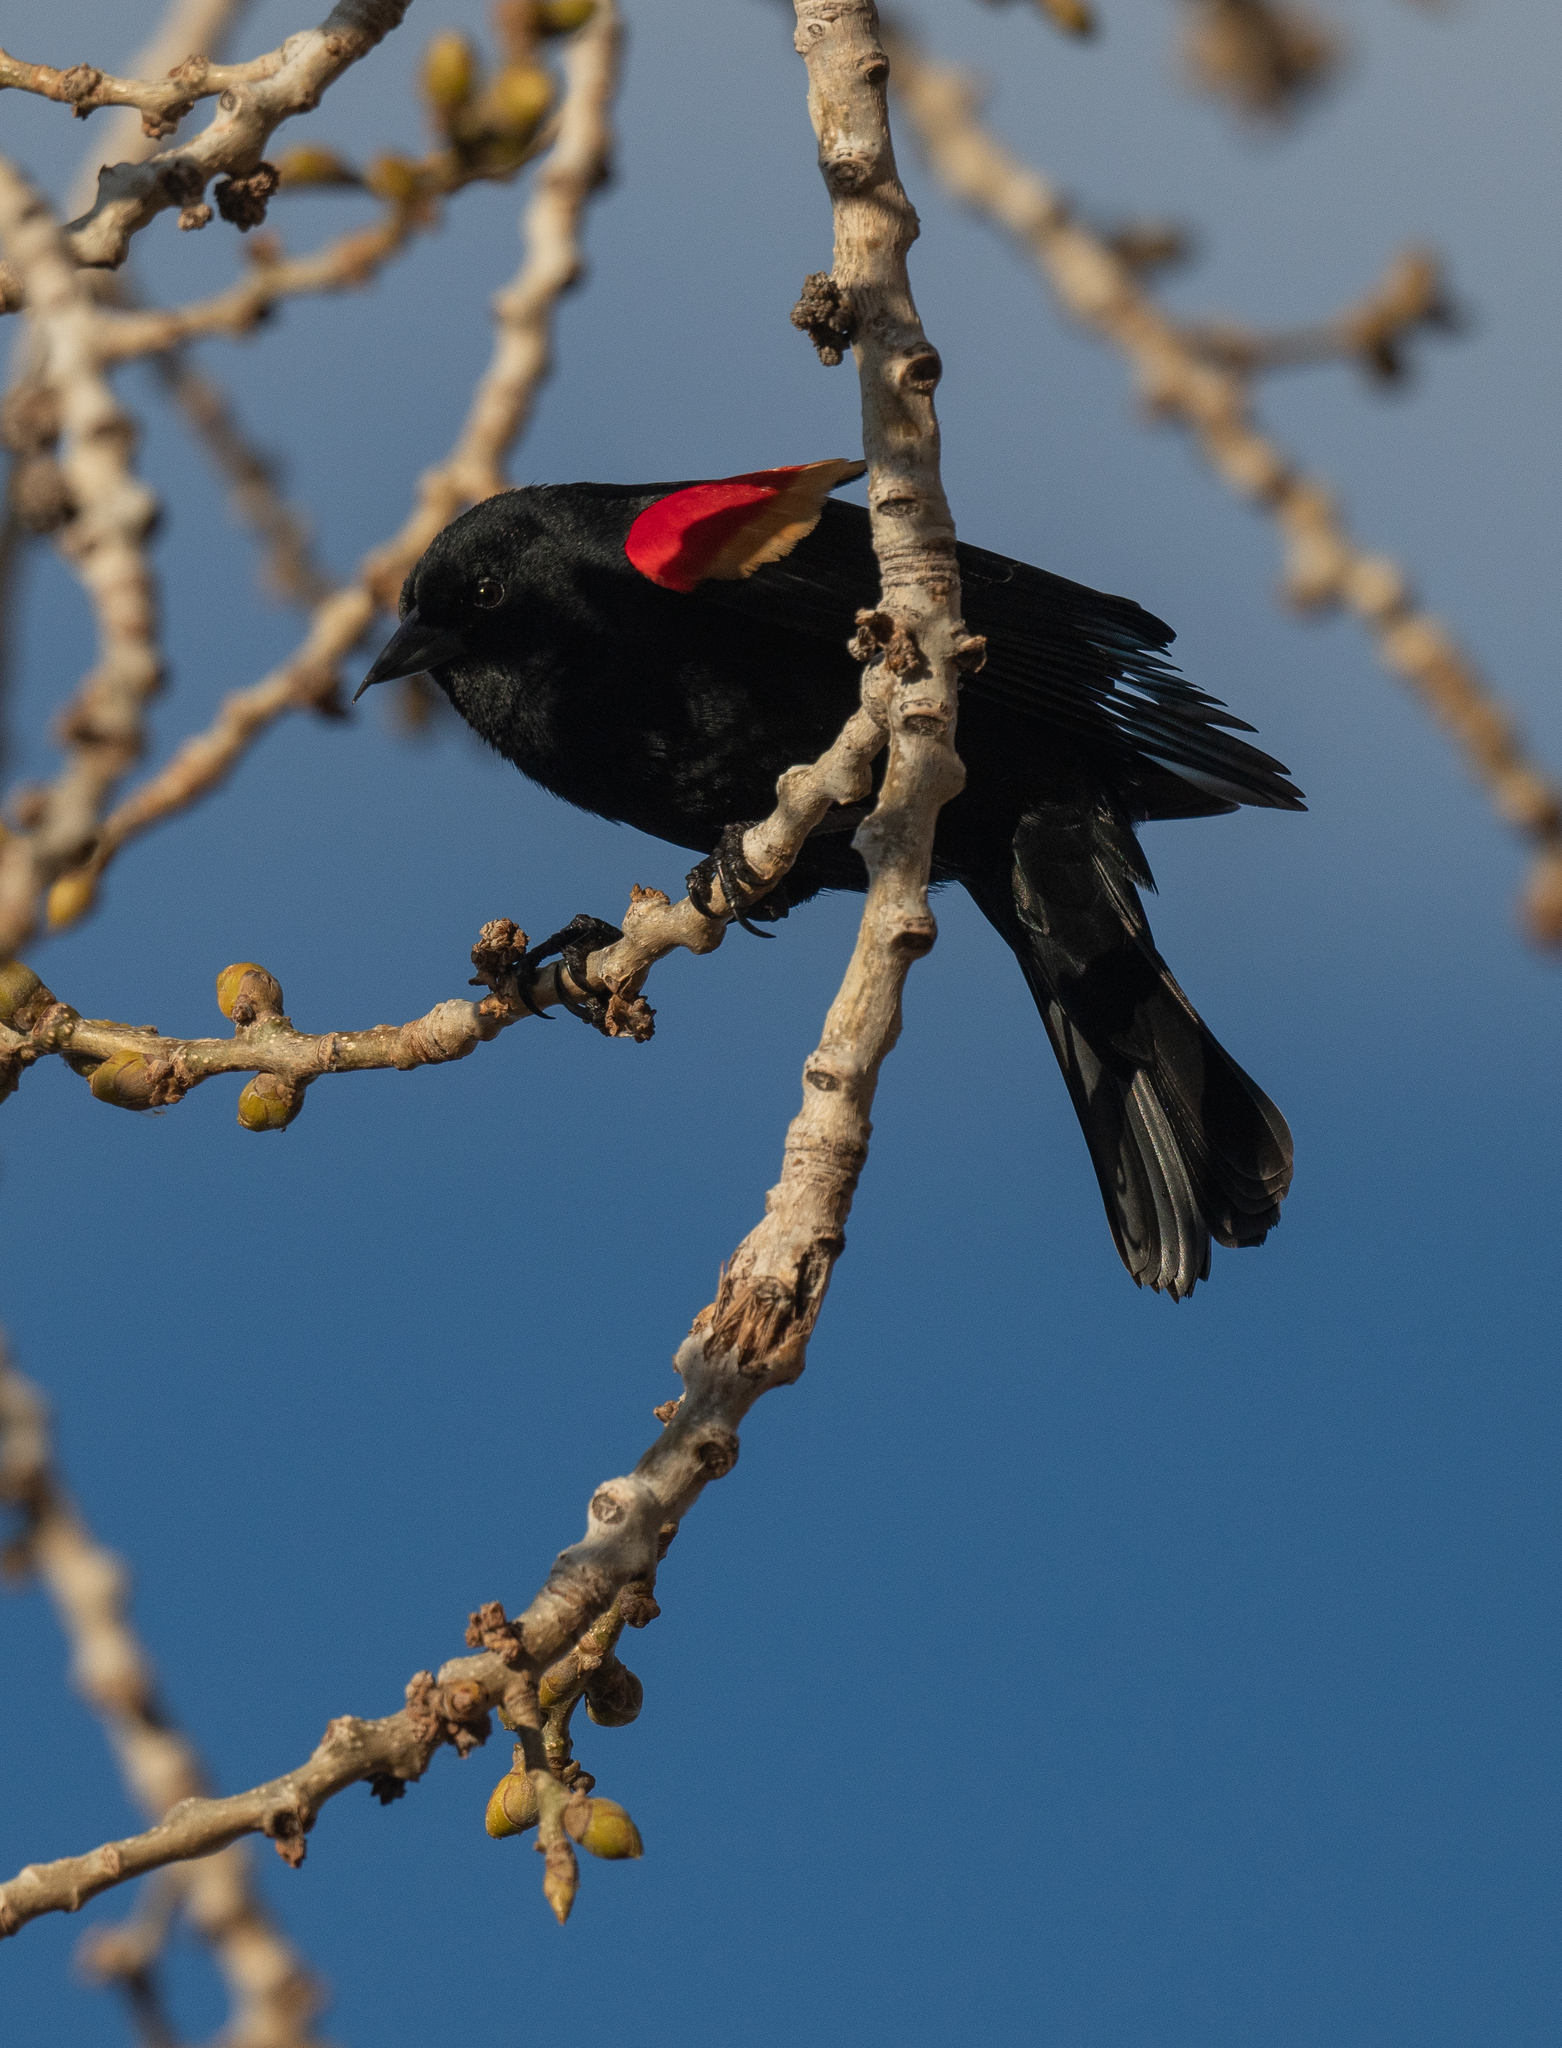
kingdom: Animalia
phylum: Chordata
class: Aves
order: Passeriformes
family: Icteridae
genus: Agelaius
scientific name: Agelaius phoeniceus
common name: Red-winged blackbird
